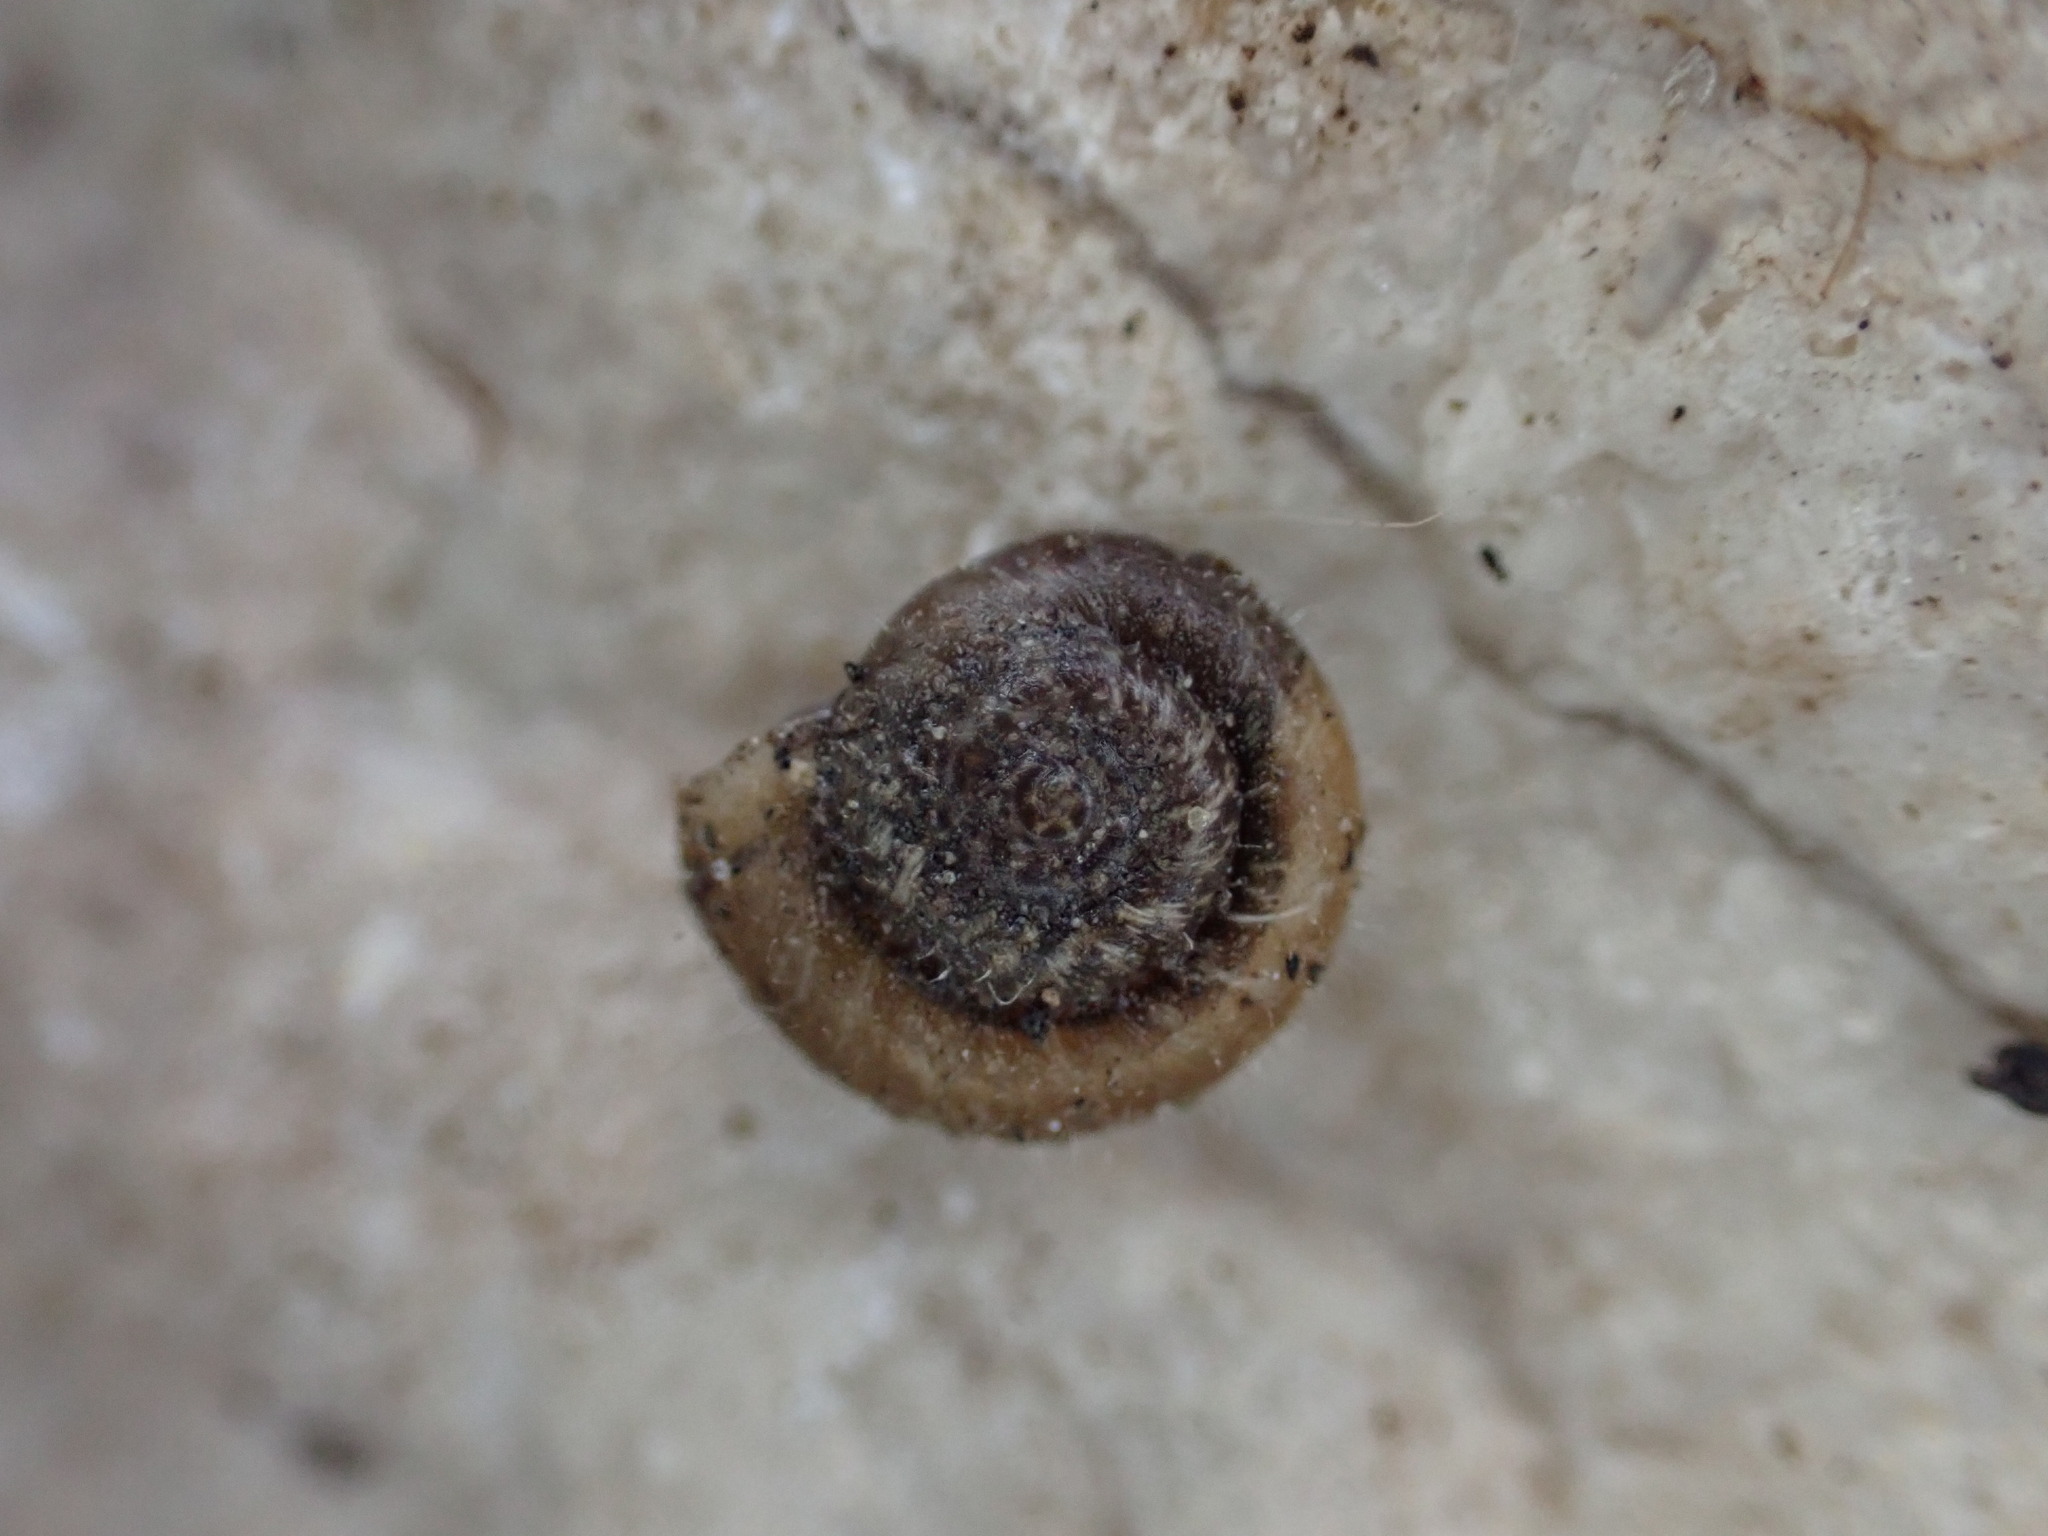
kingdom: Animalia
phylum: Mollusca
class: Gastropoda
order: Stylommatophora
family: Geomitridae
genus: Xerotricha
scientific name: Xerotricha conspurcata
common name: Snail
